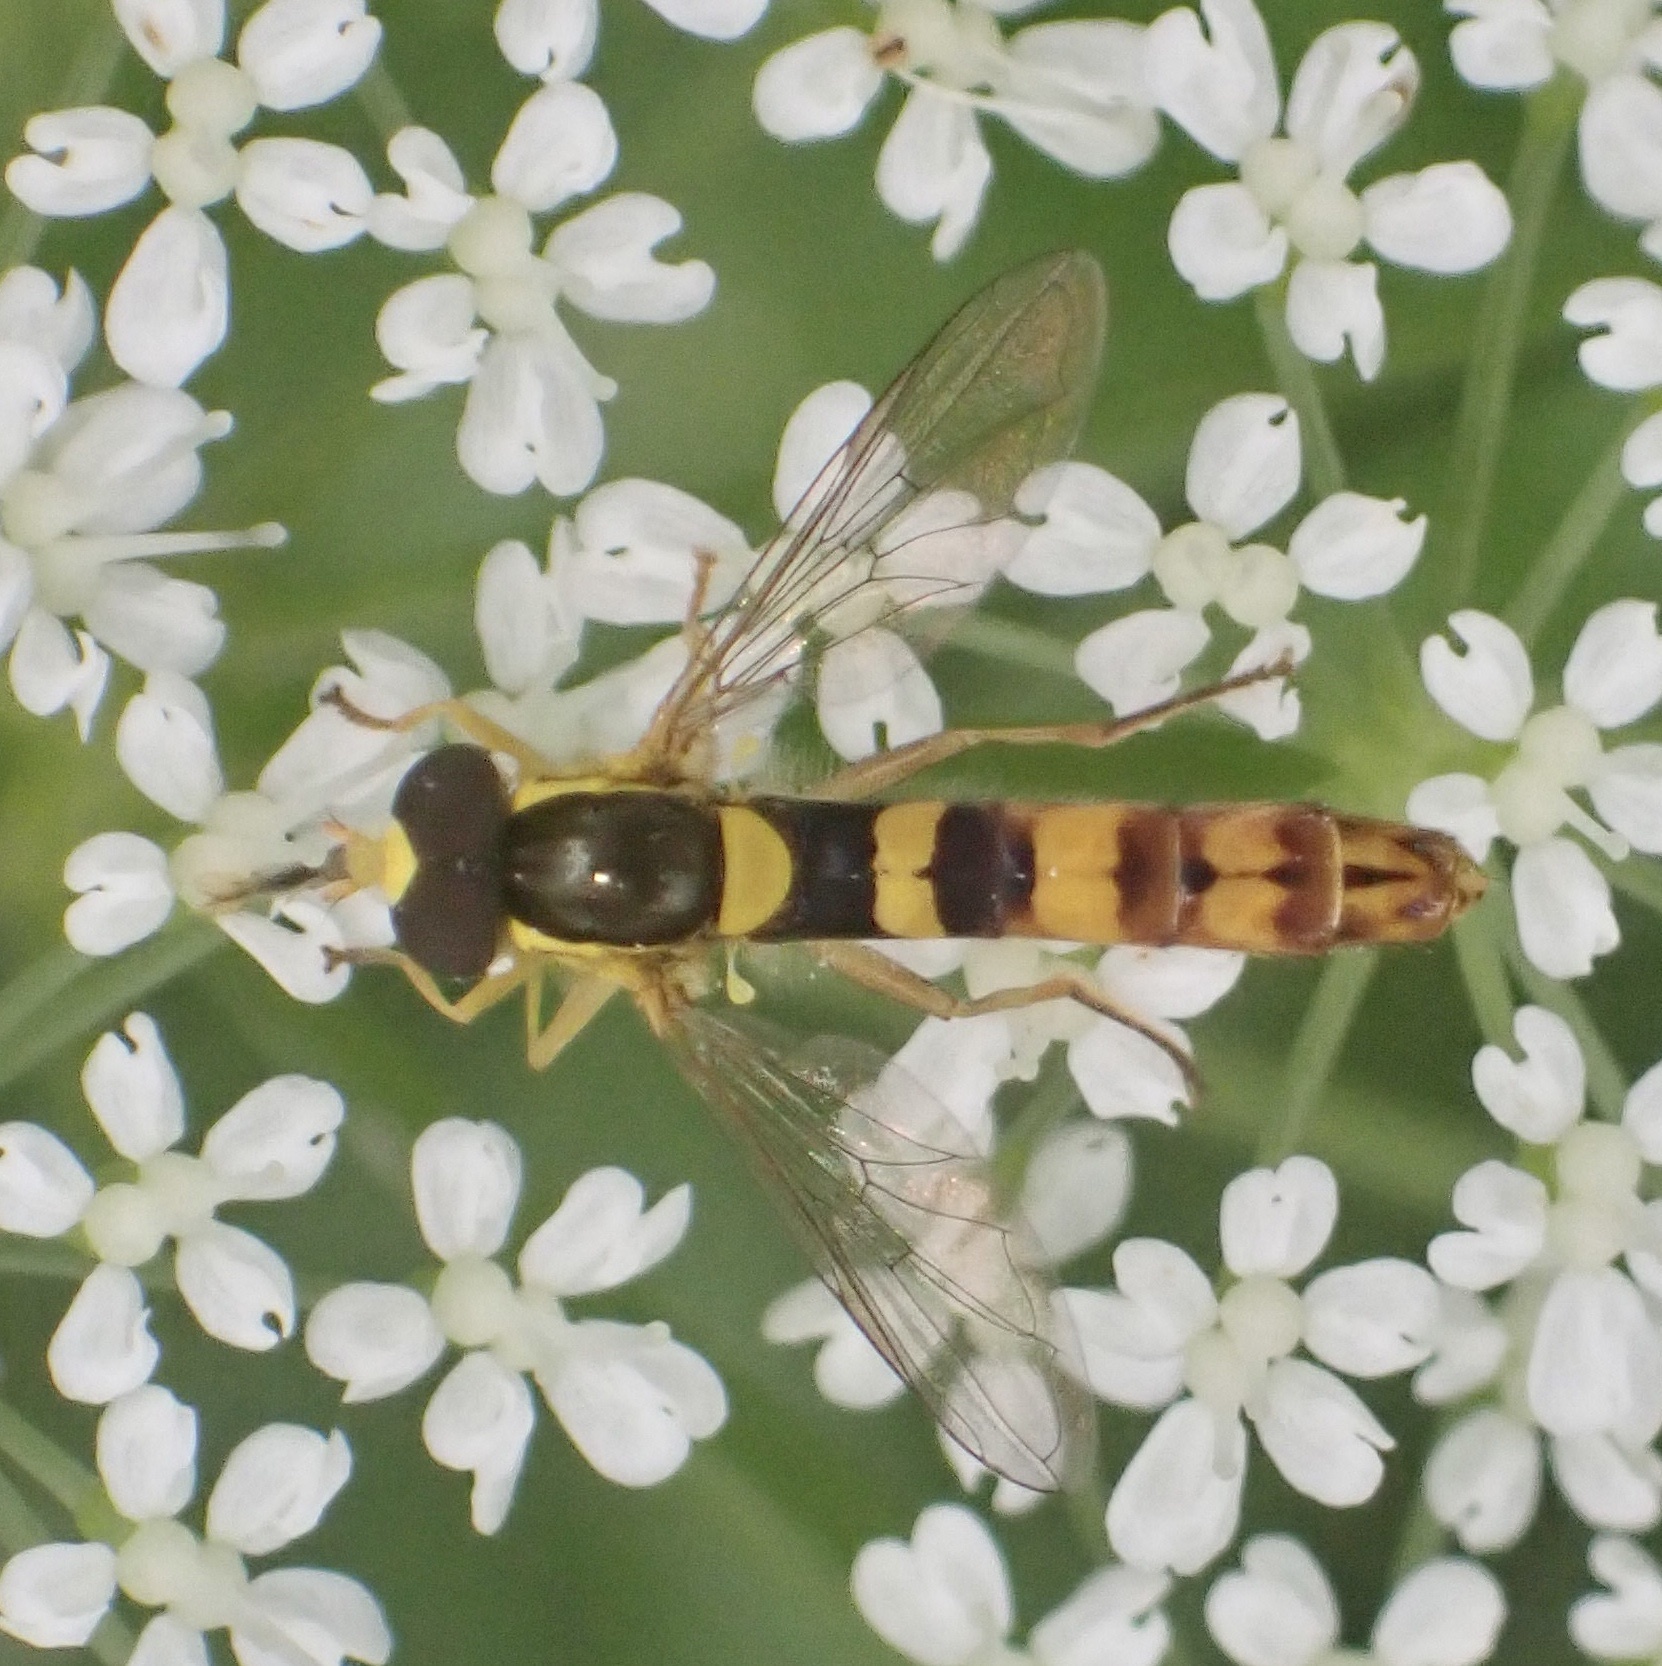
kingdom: Animalia
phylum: Arthropoda
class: Insecta
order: Diptera
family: Syrphidae
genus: Sphaerophoria
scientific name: Sphaerophoria scripta
